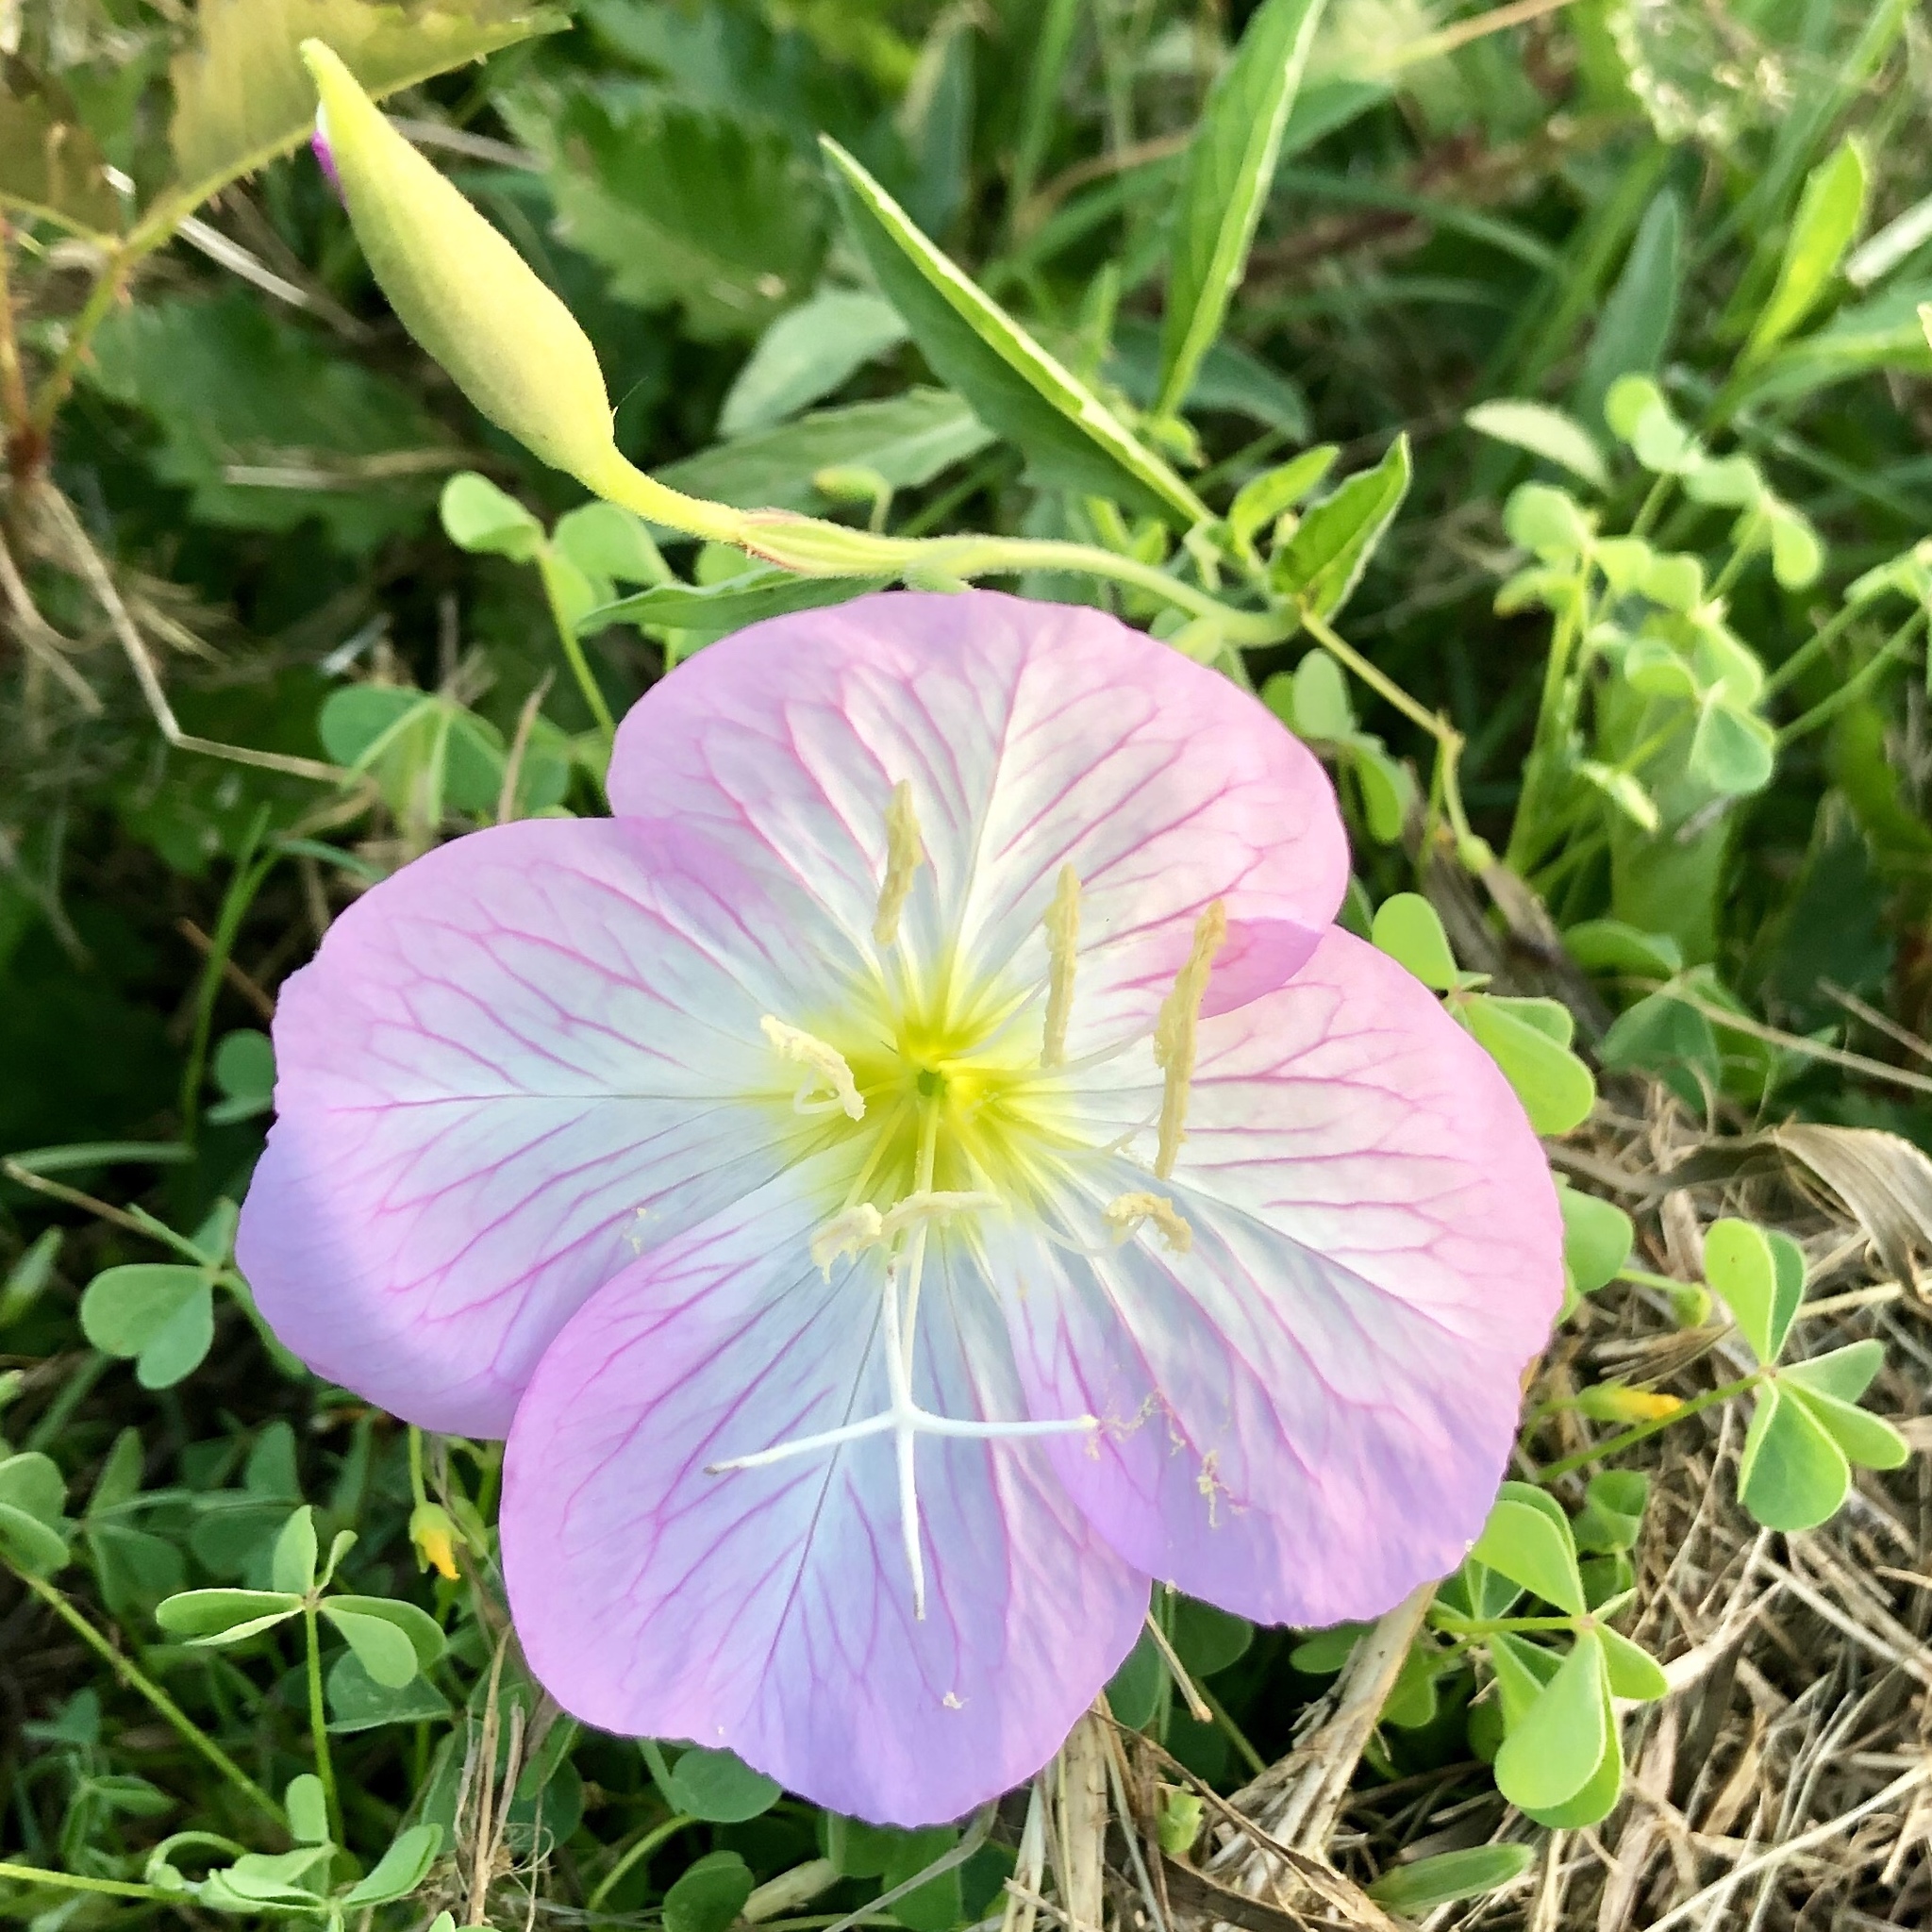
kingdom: Plantae
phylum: Tracheophyta
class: Magnoliopsida
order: Myrtales
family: Onagraceae
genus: Oenothera
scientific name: Oenothera speciosa
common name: White evening-primrose
